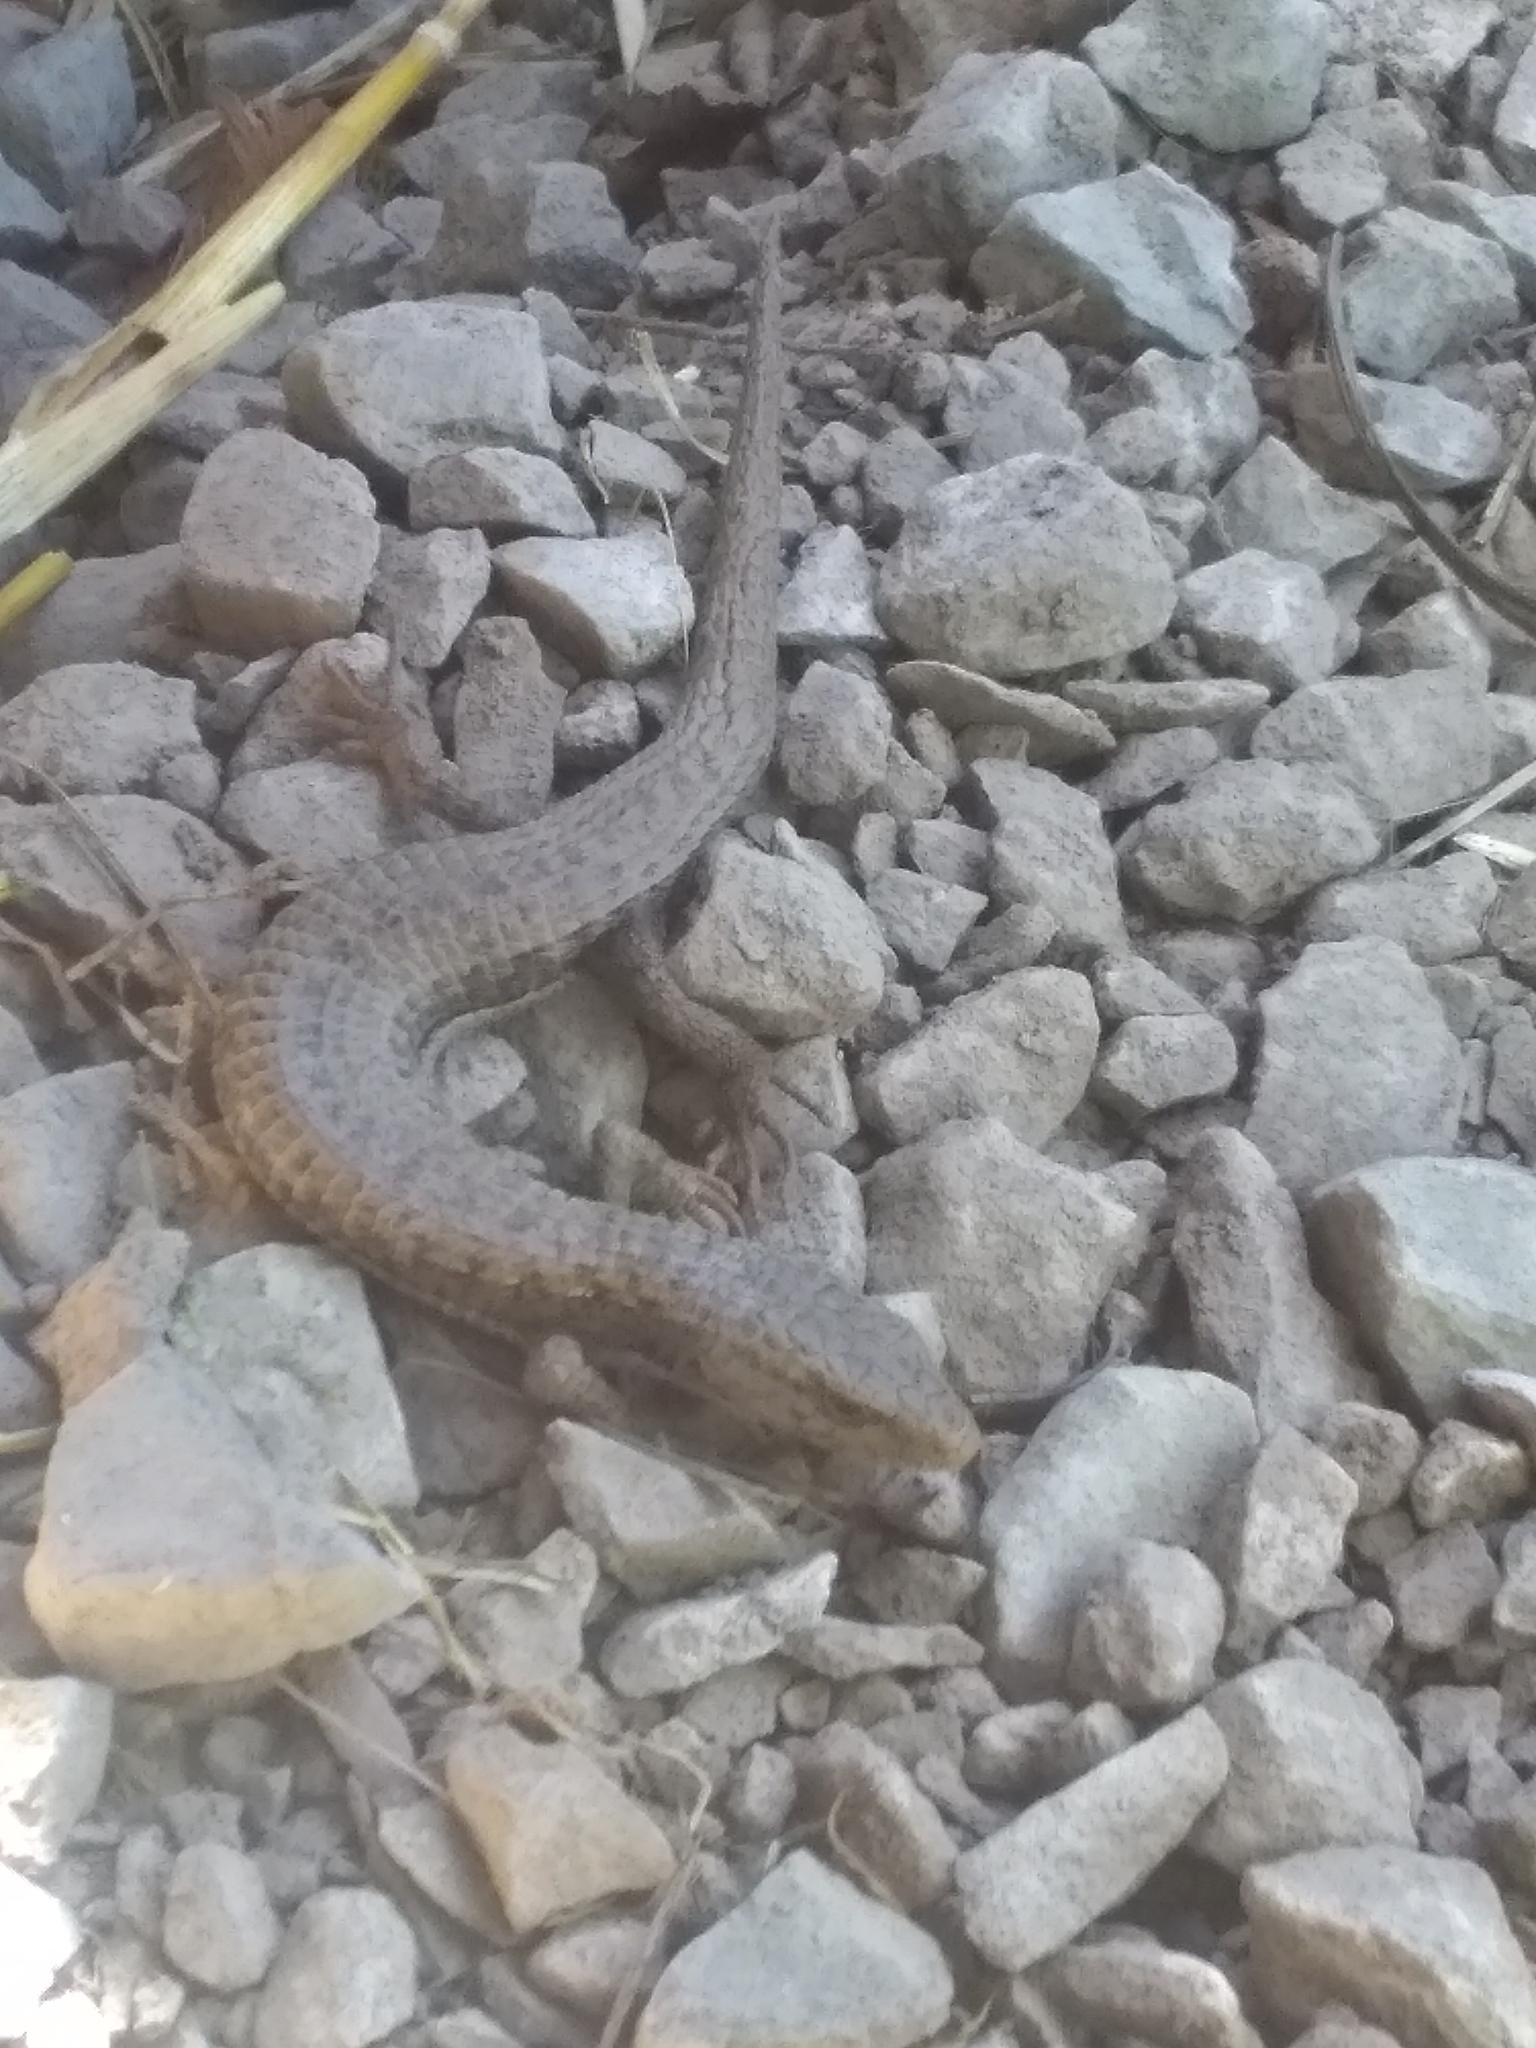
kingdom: Animalia
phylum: Chordata
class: Squamata
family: Anguidae
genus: Elgaria
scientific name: Elgaria coerulea
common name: Northern alligator lizard
